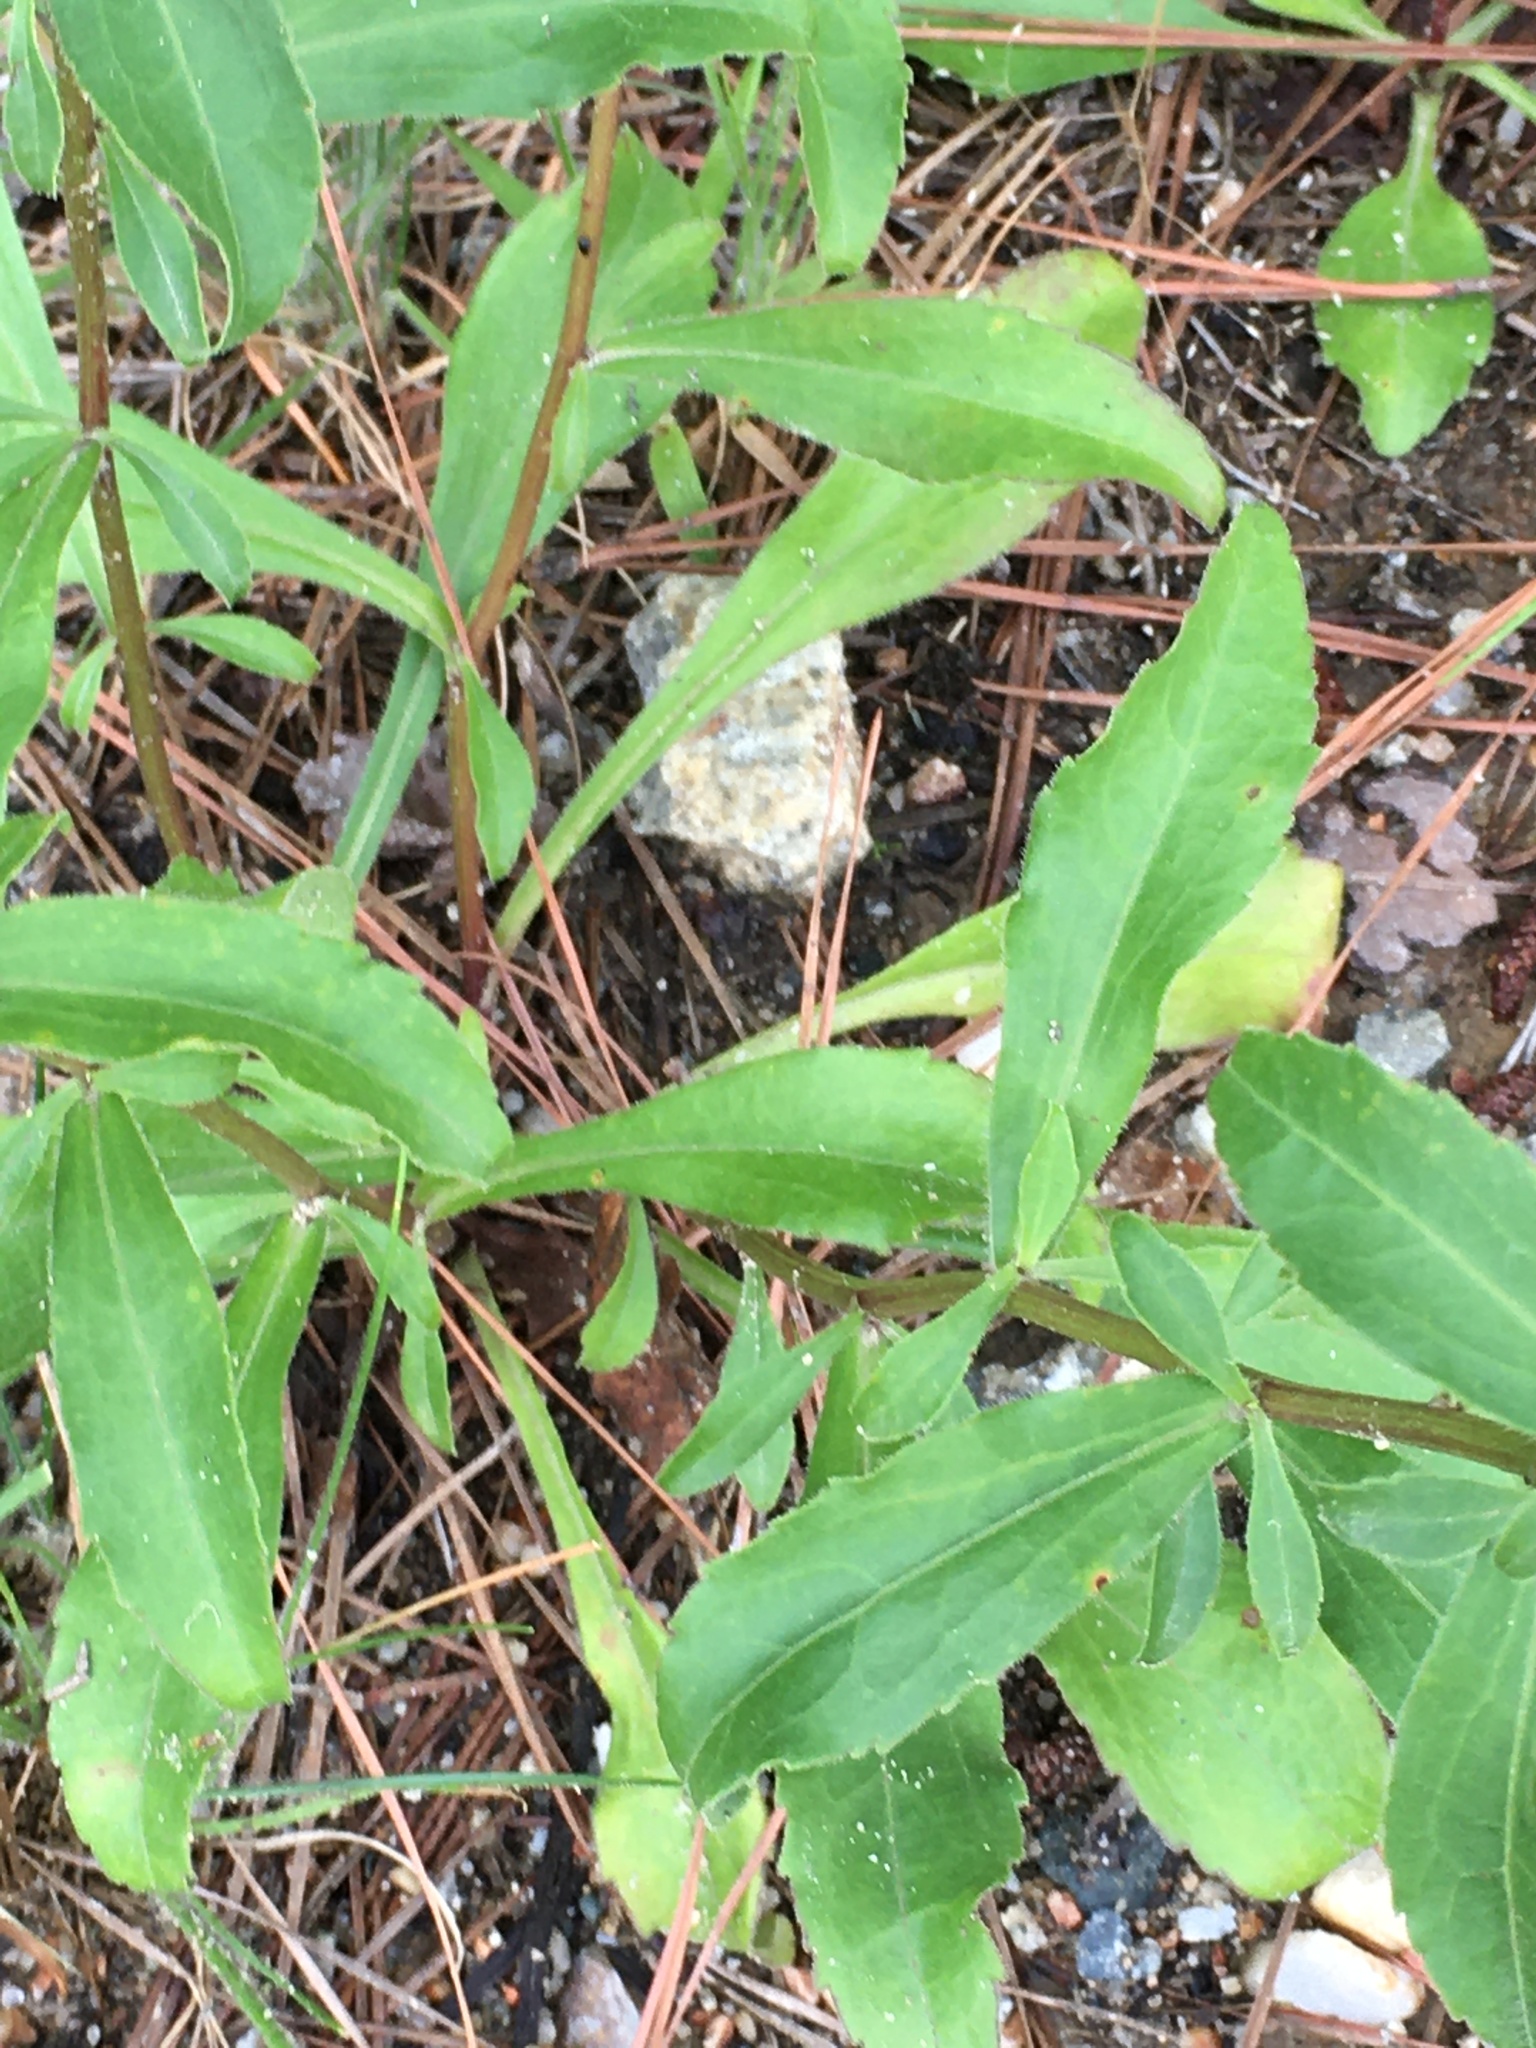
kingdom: Plantae
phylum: Tracheophyta
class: Magnoliopsida
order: Asterales
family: Asteraceae
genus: Sericocarpus
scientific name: Sericocarpus asteroides
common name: Toothed white-top aster
